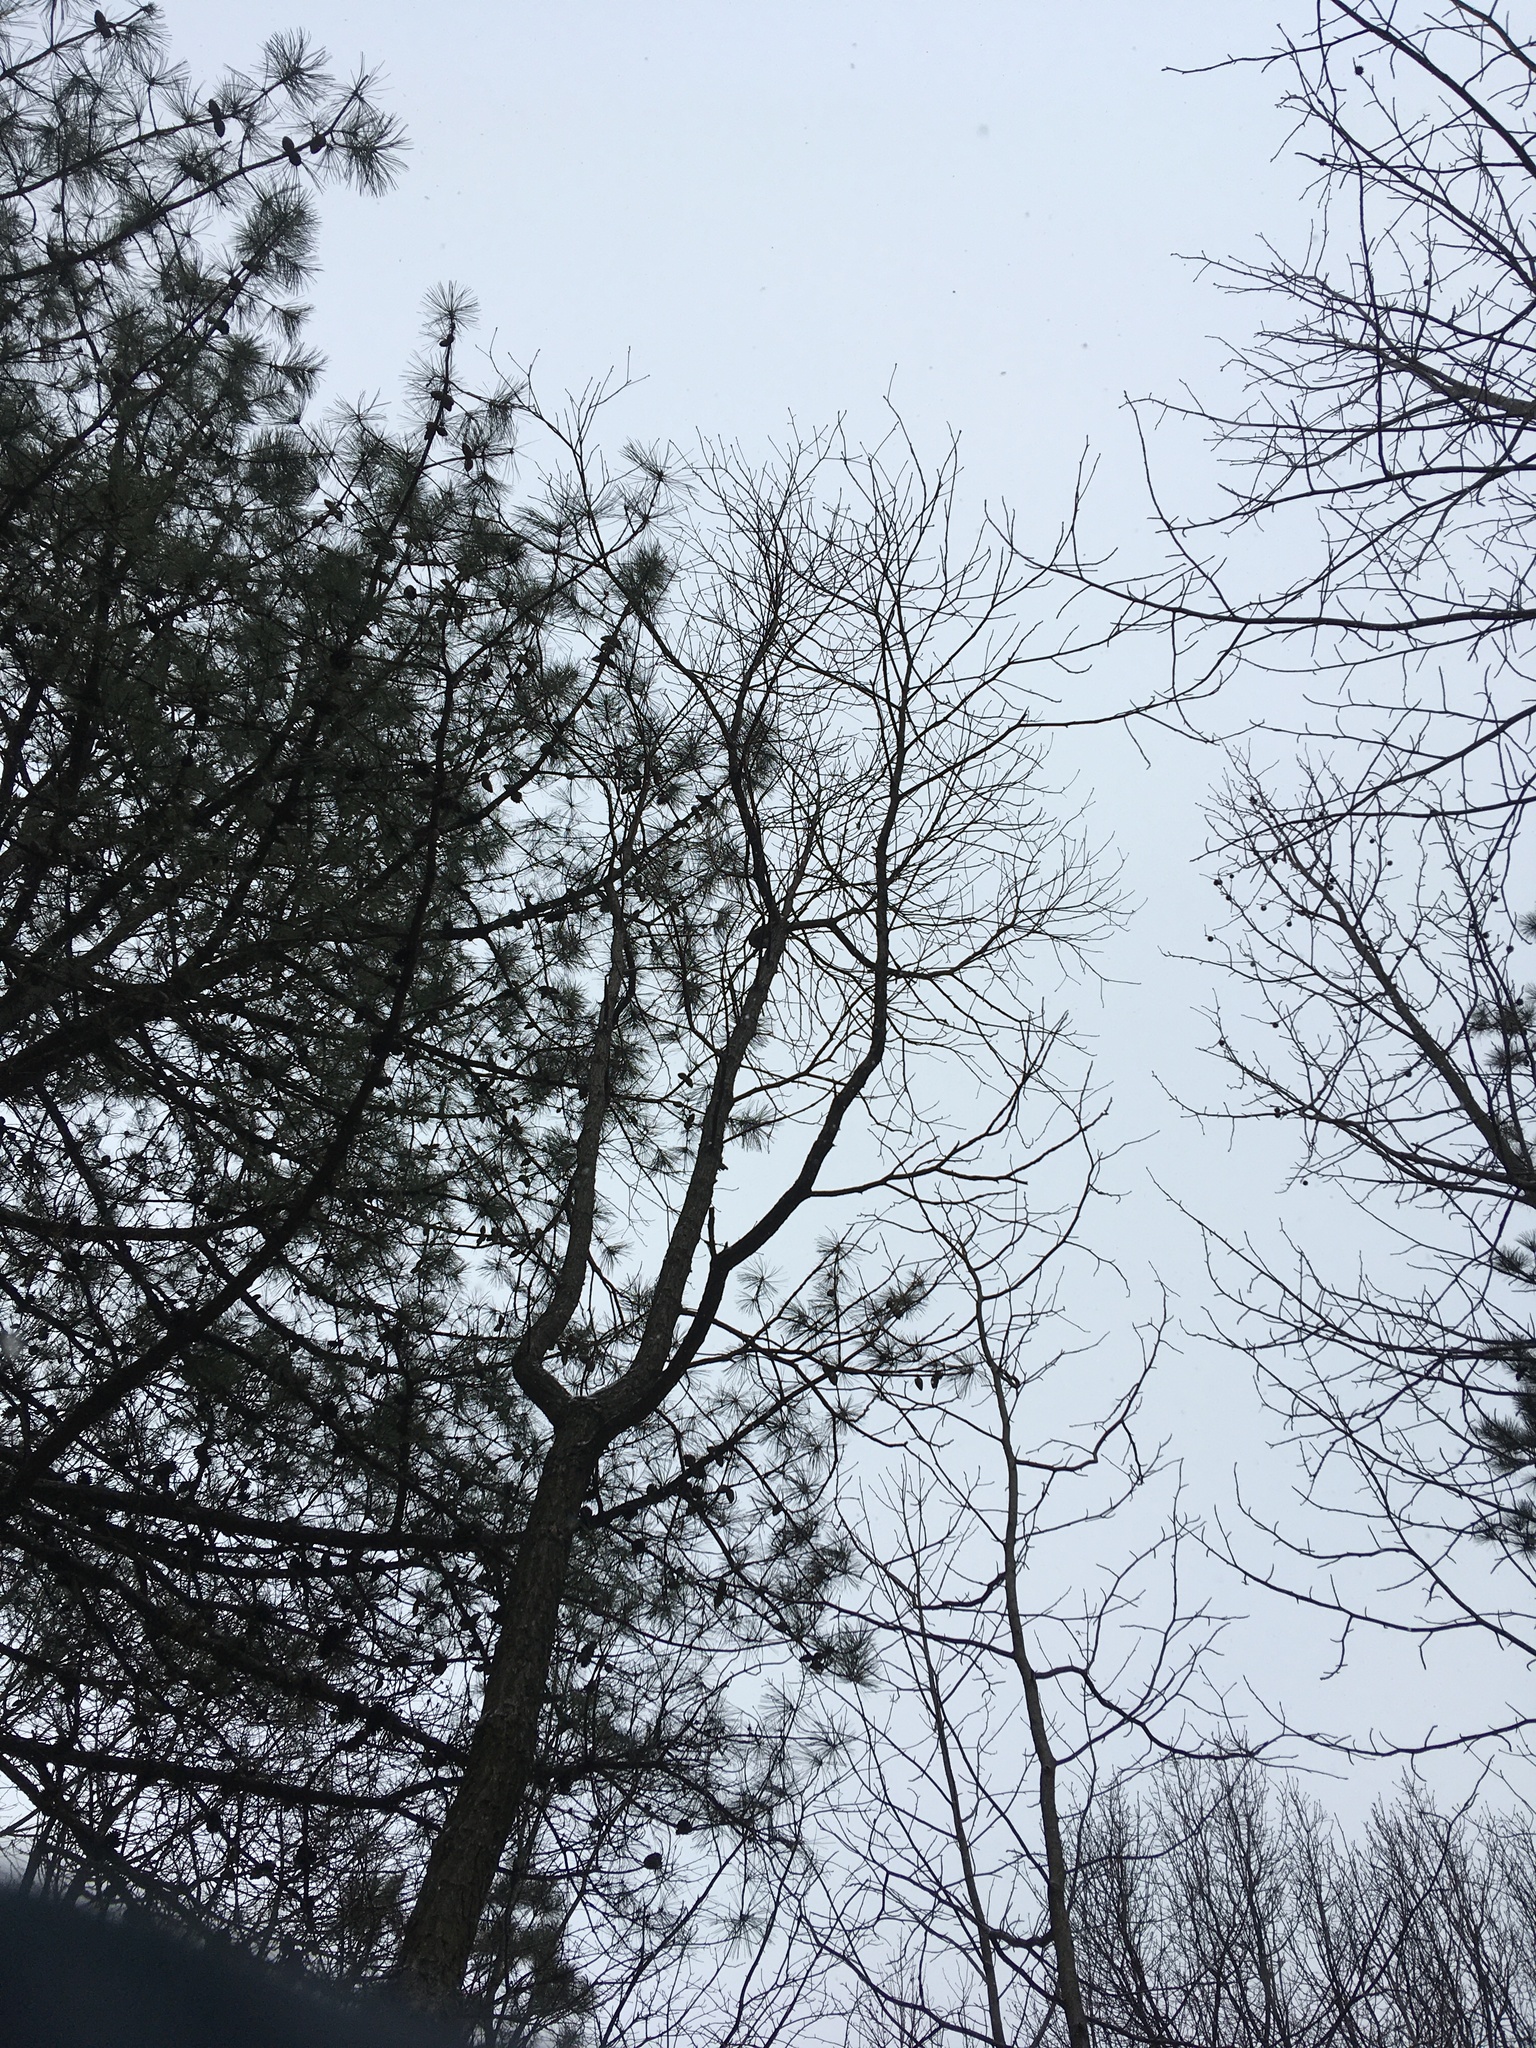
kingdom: Plantae
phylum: Tracheophyta
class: Magnoliopsida
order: Laurales
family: Lauraceae
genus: Sassafras
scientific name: Sassafras albidum
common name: Sassafras
